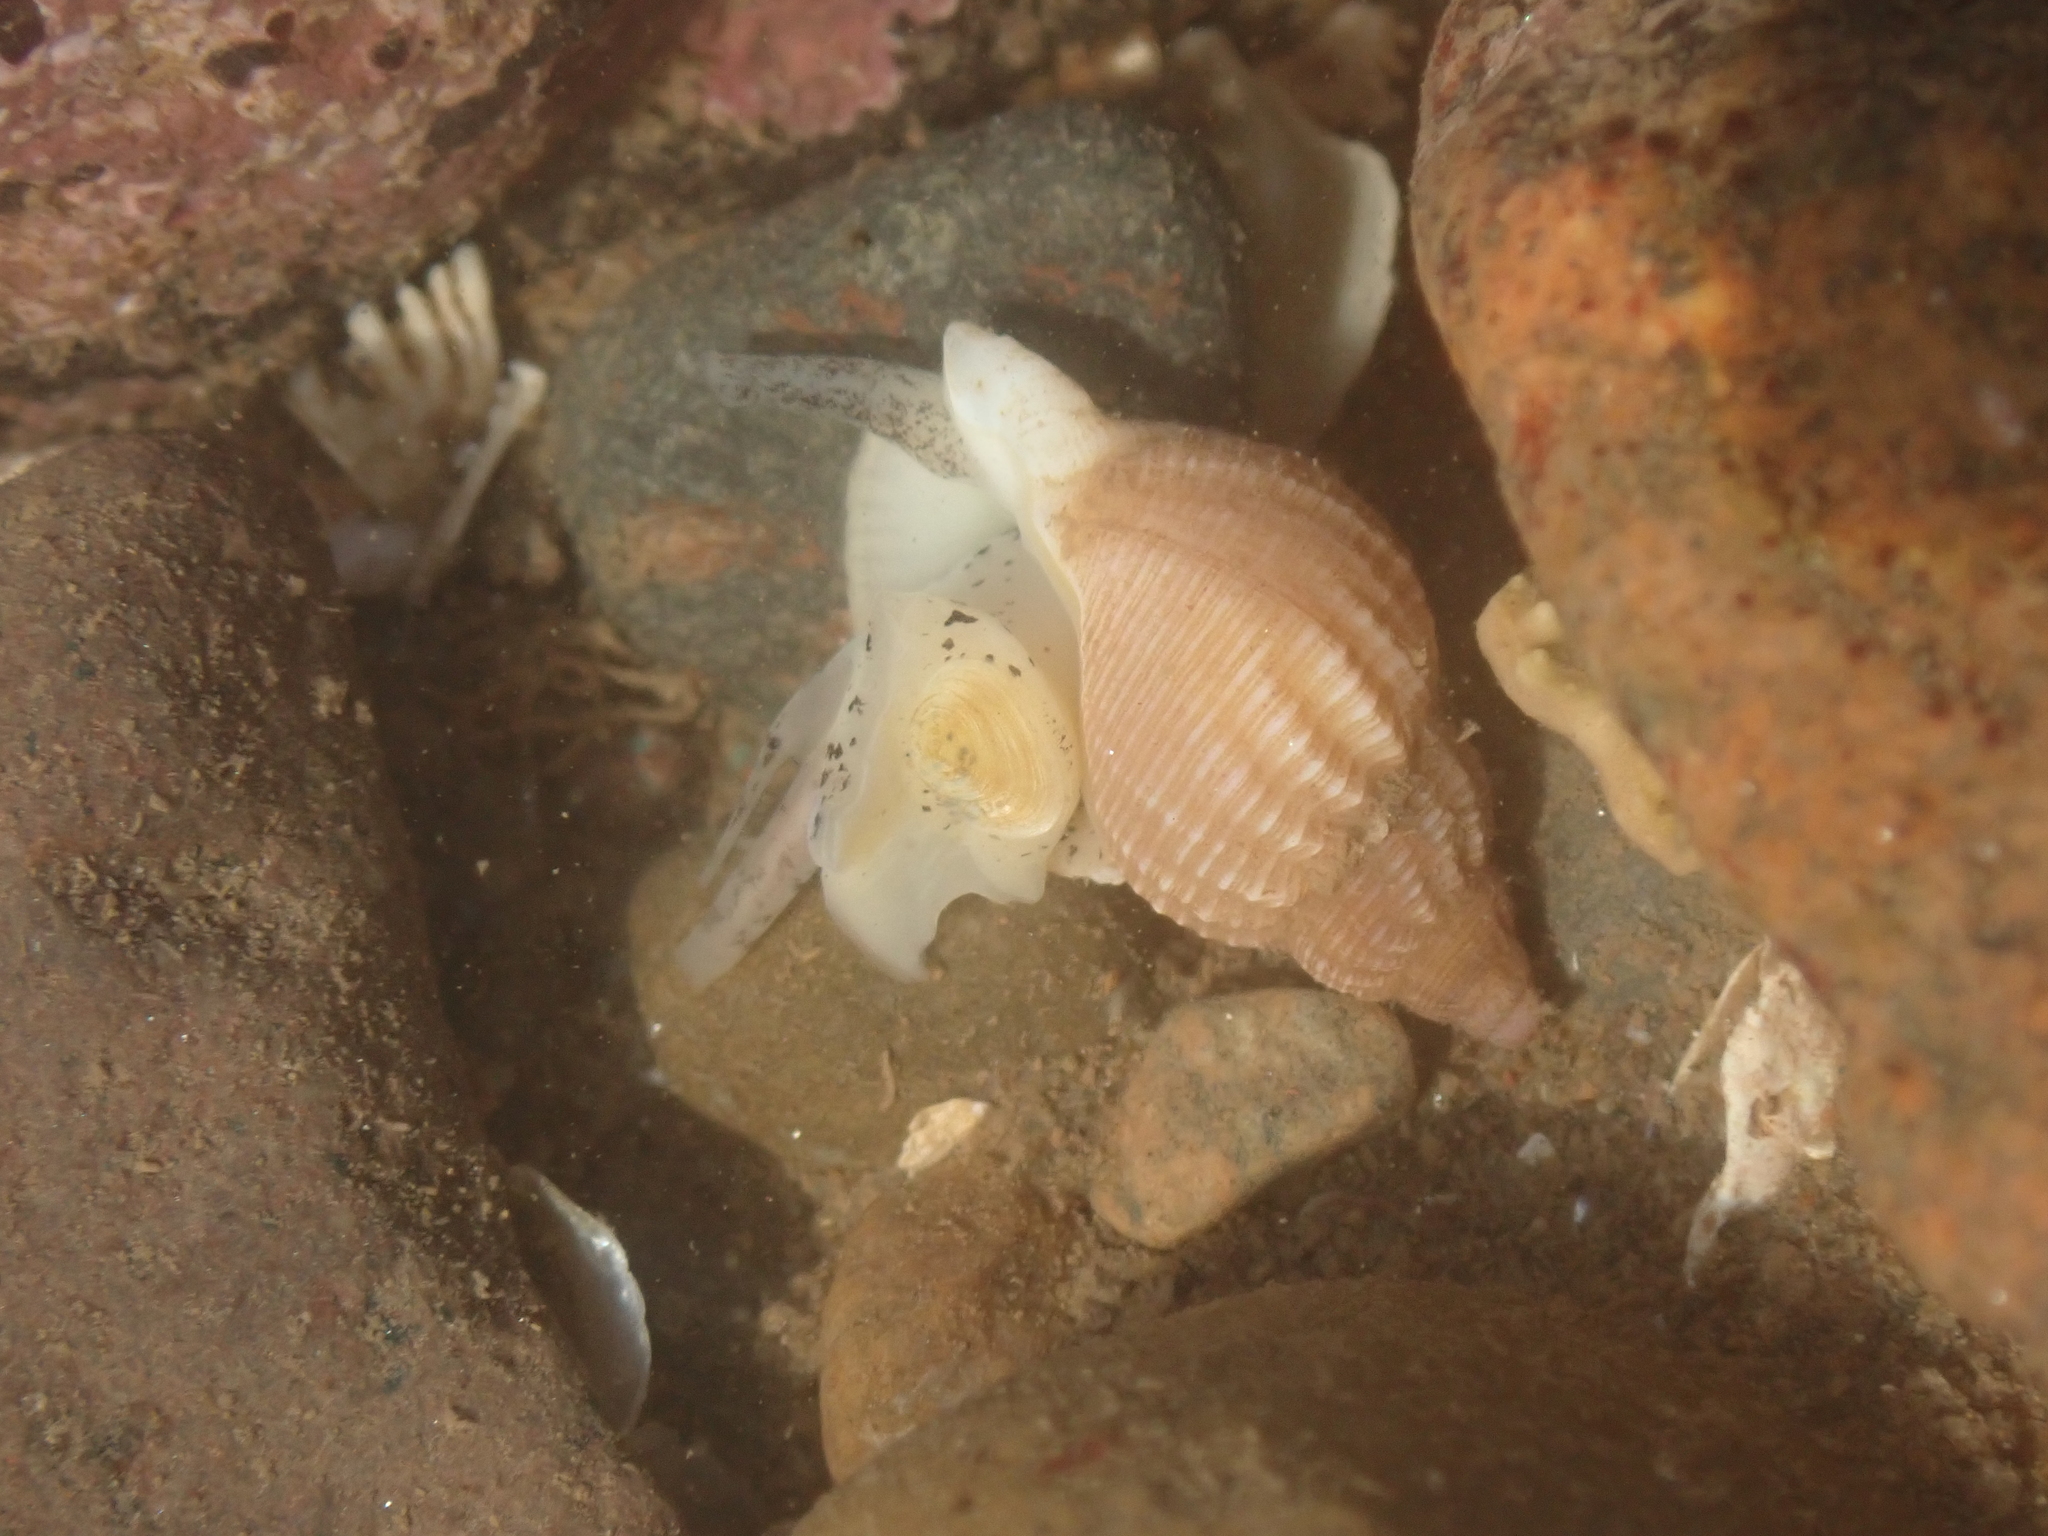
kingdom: Animalia
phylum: Mollusca
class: Gastropoda
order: Neogastropoda
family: Buccinidae
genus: Buccinum
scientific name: Buccinum undatum
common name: Common whelk
